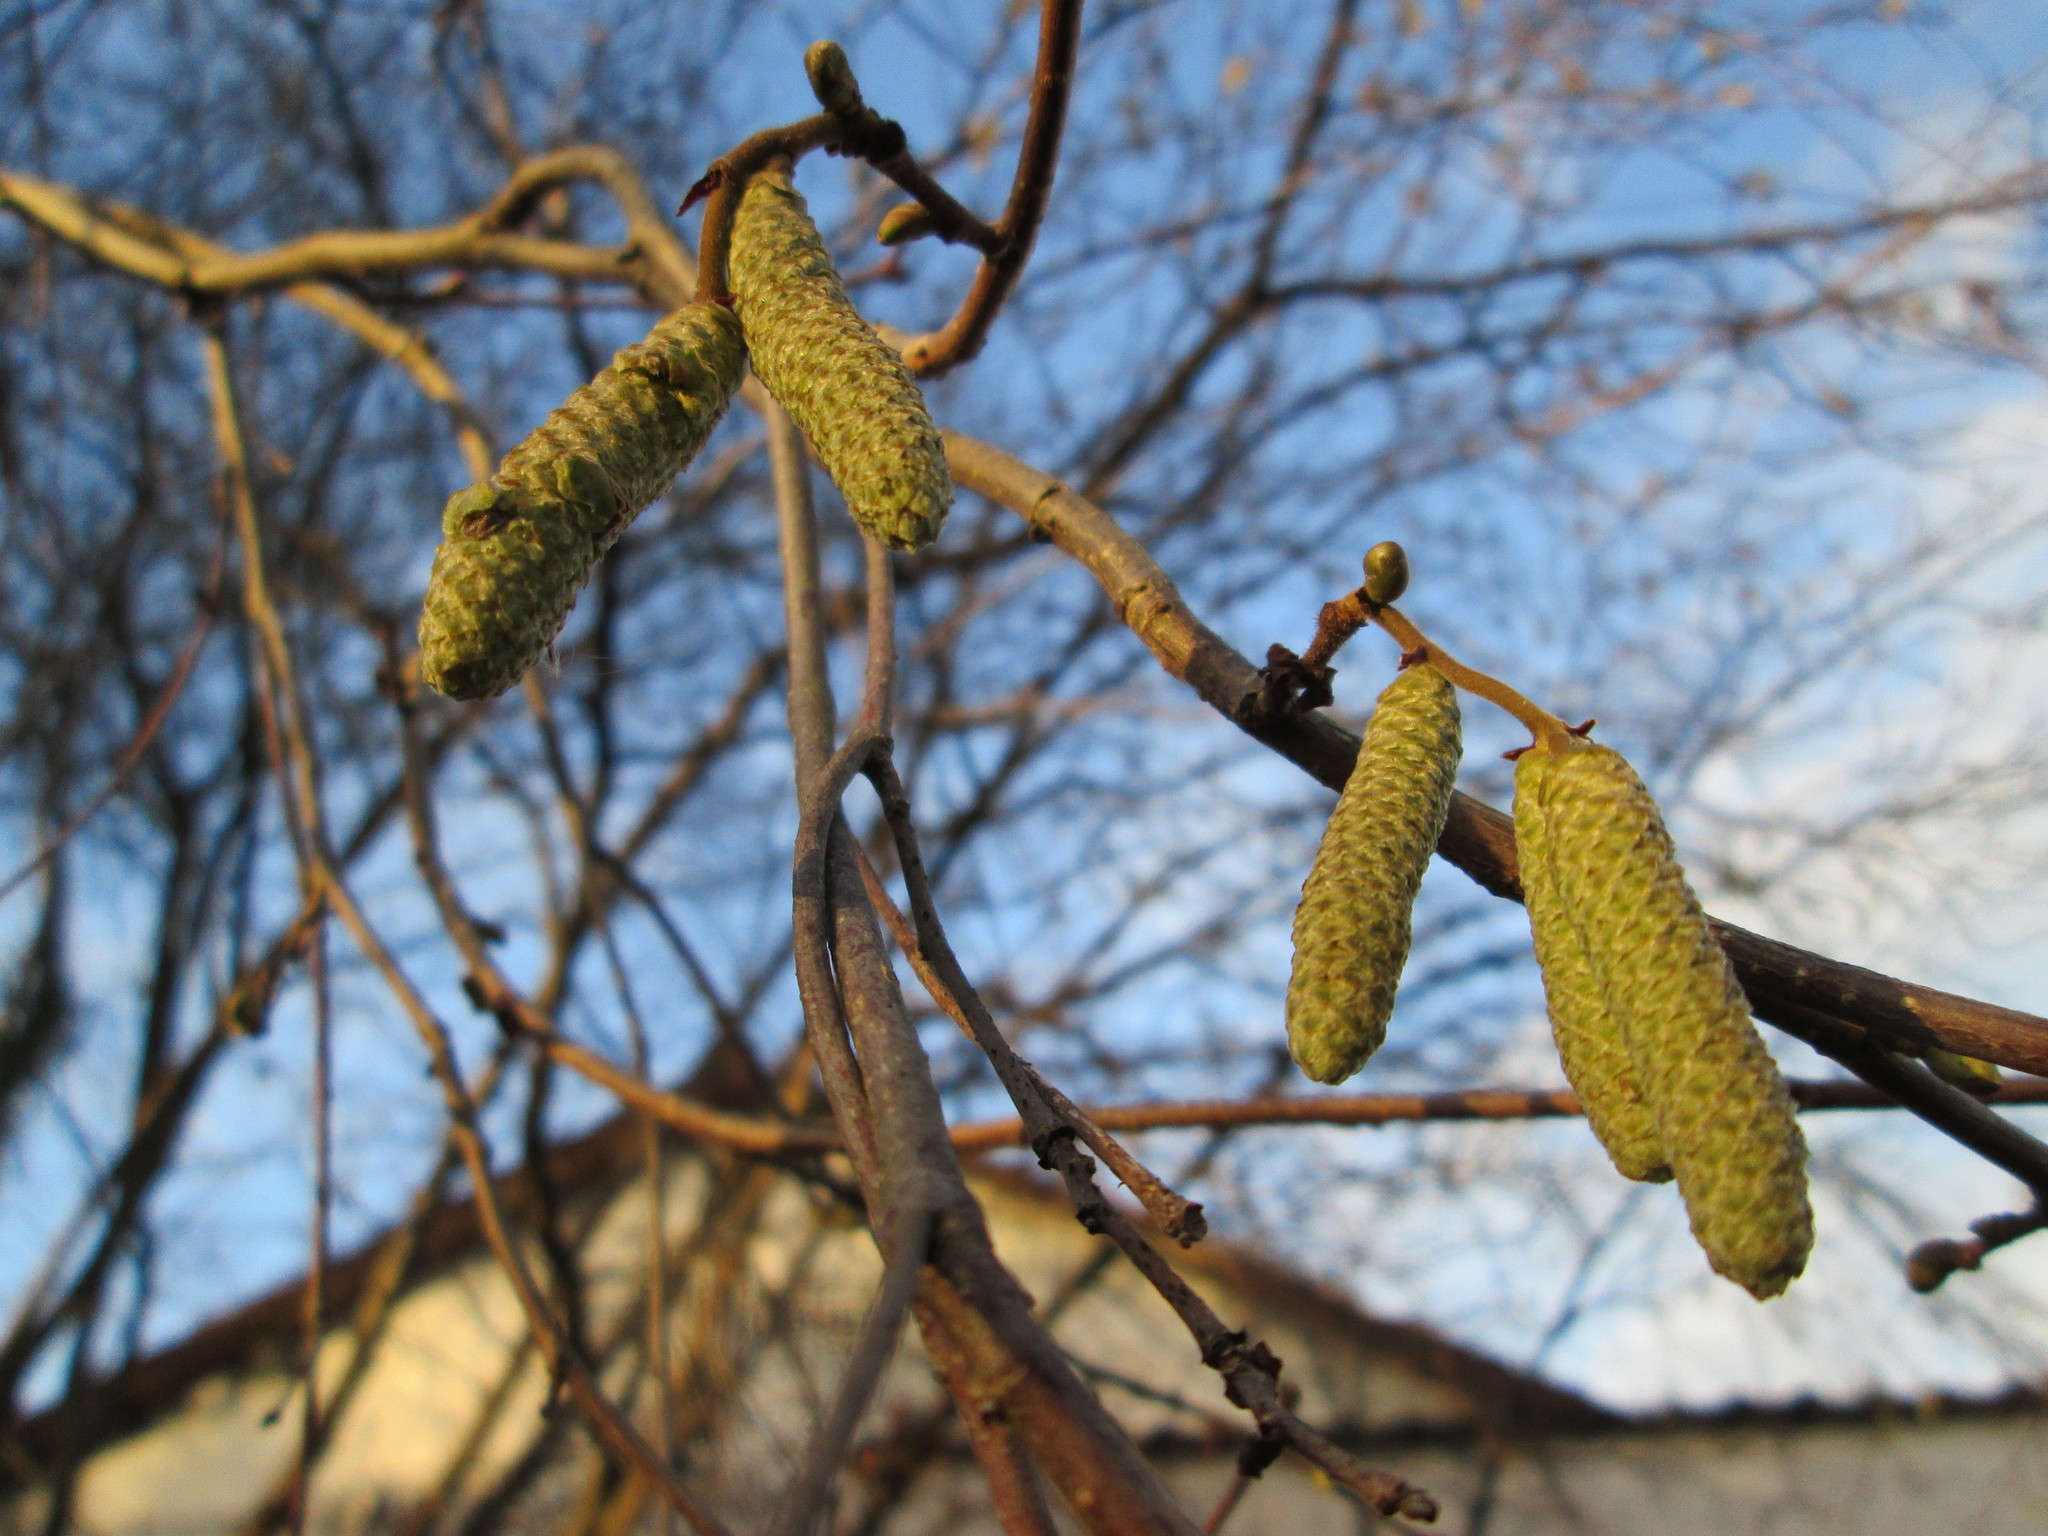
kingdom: Plantae
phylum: Tracheophyta
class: Magnoliopsida
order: Fagales
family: Betulaceae
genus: Corylus
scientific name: Corylus avellana
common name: European hazel
